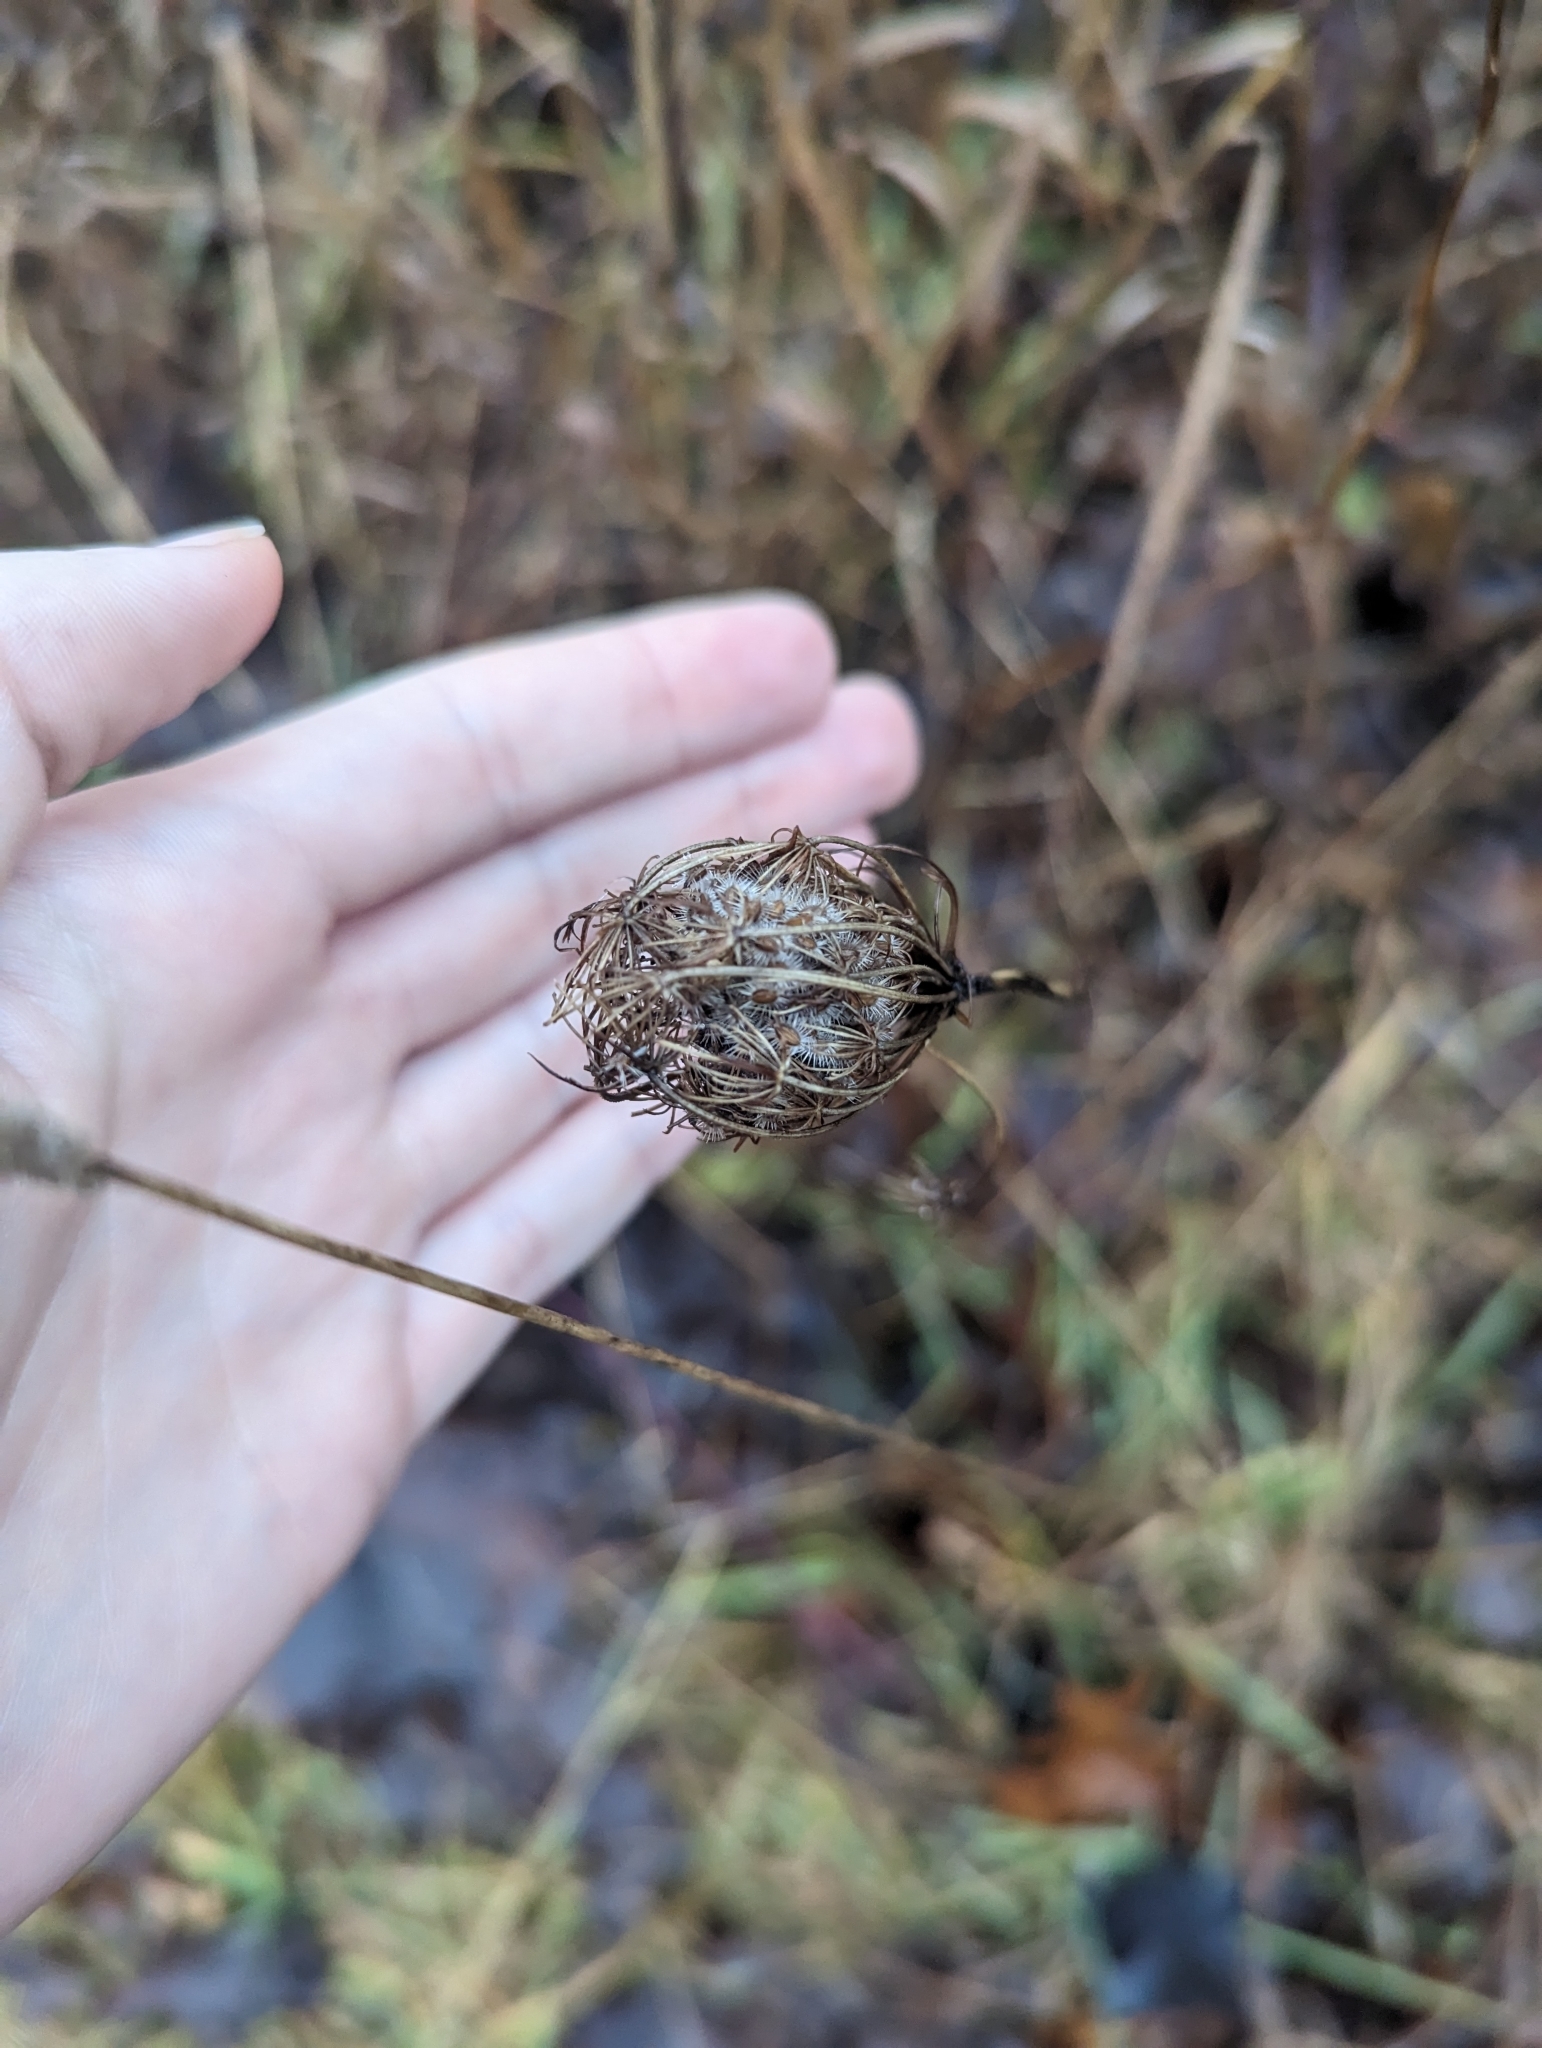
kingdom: Plantae
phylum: Tracheophyta
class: Magnoliopsida
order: Apiales
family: Apiaceae
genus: Daucus
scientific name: Daucus carota
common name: Wild carrot
